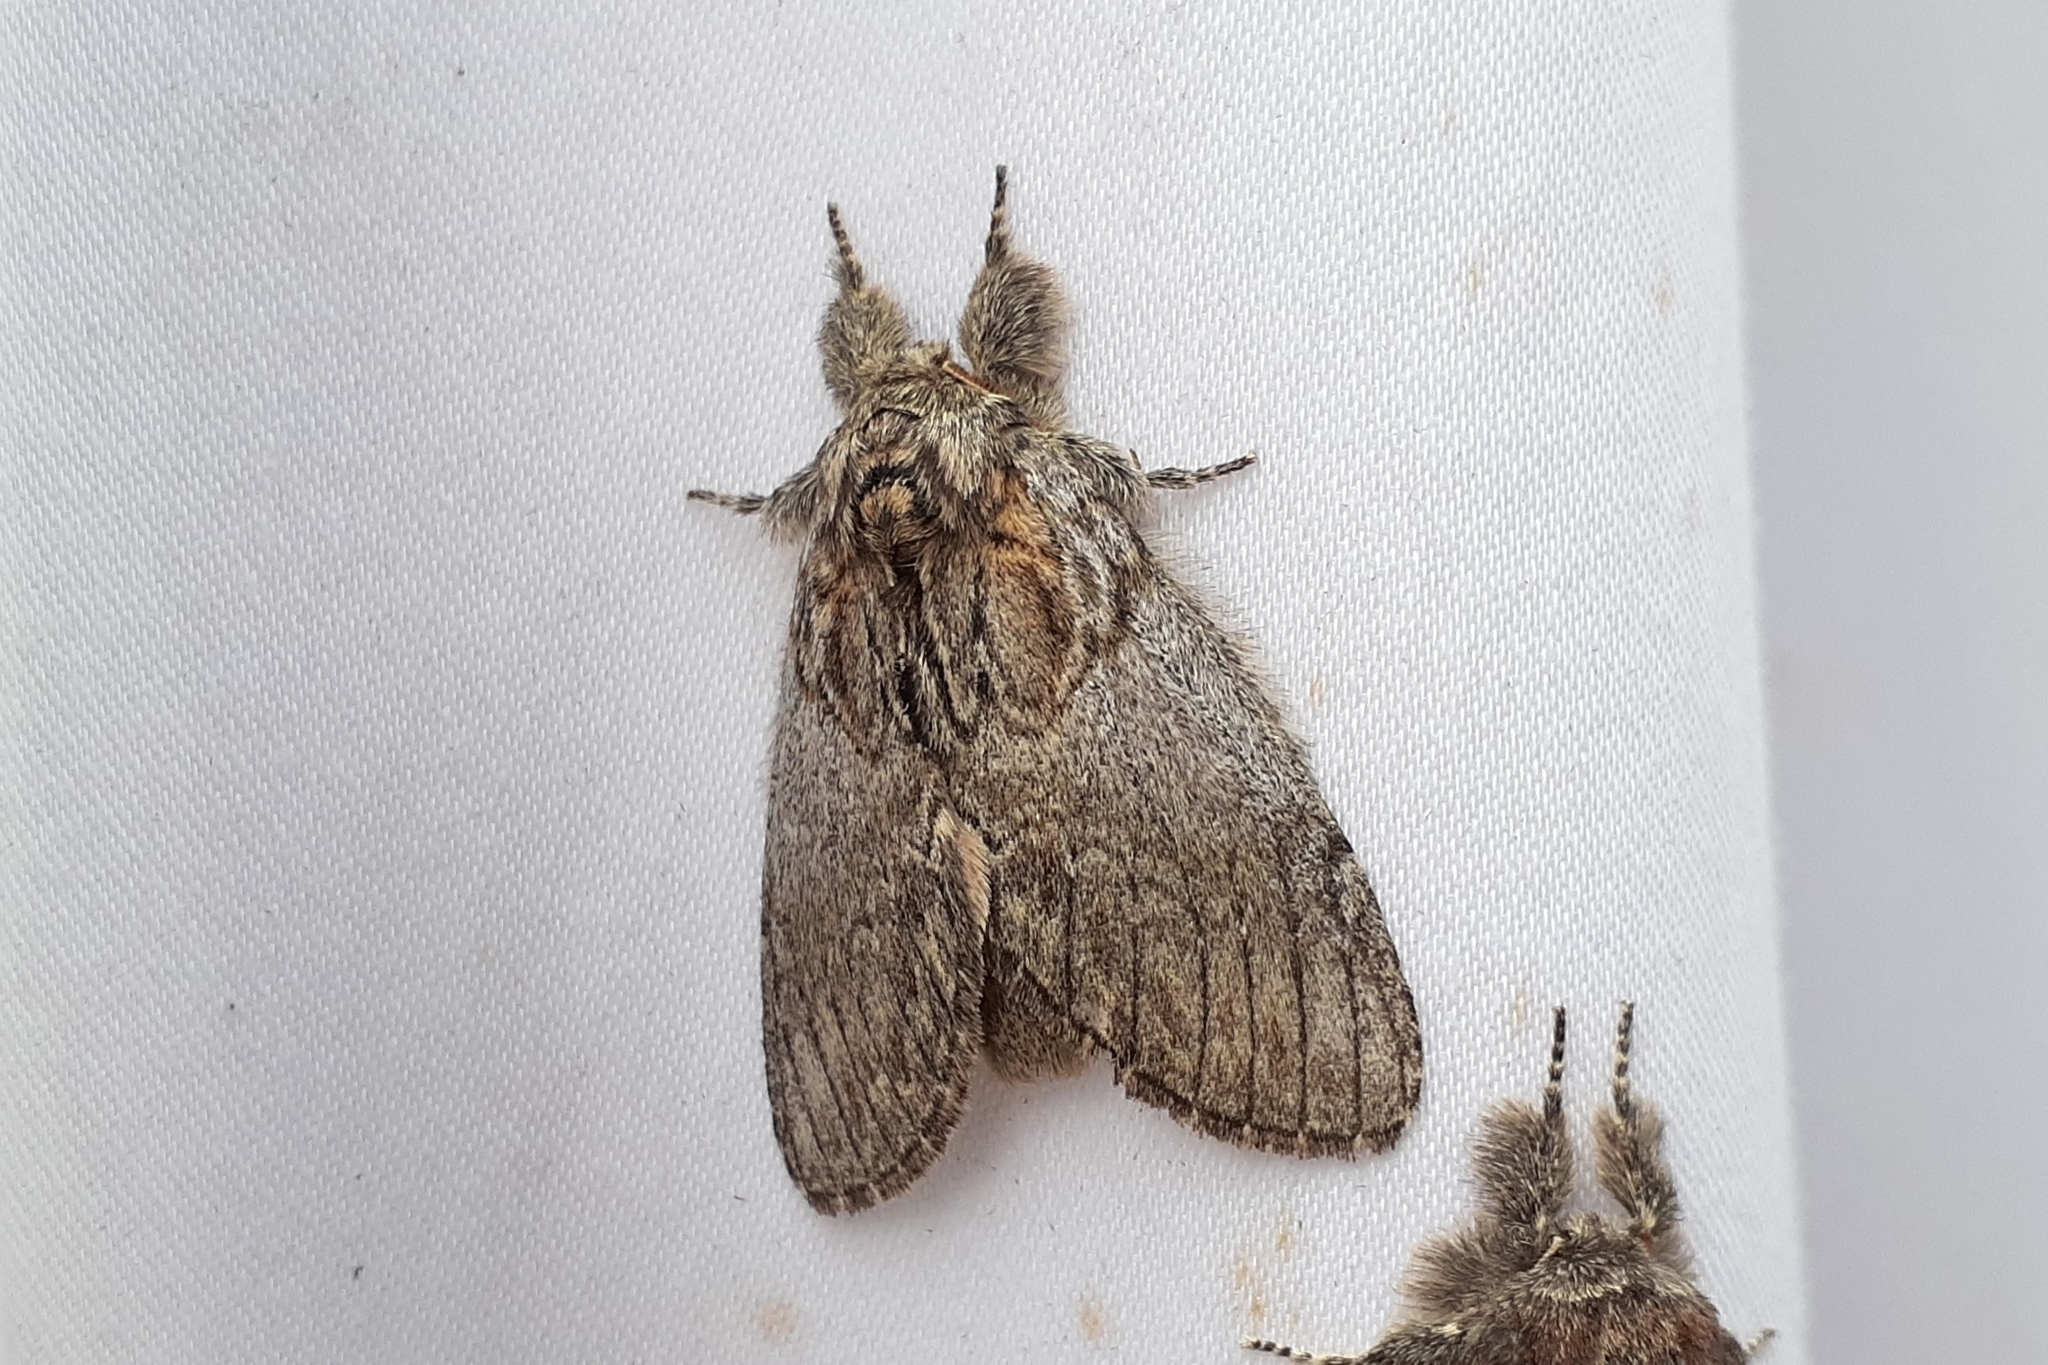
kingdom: Animalia
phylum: Arthropoda
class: Insecta
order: Lepidoptera
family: Notodontidae
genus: Peridea
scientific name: Peridea basitriens
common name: Oval-based prominent
